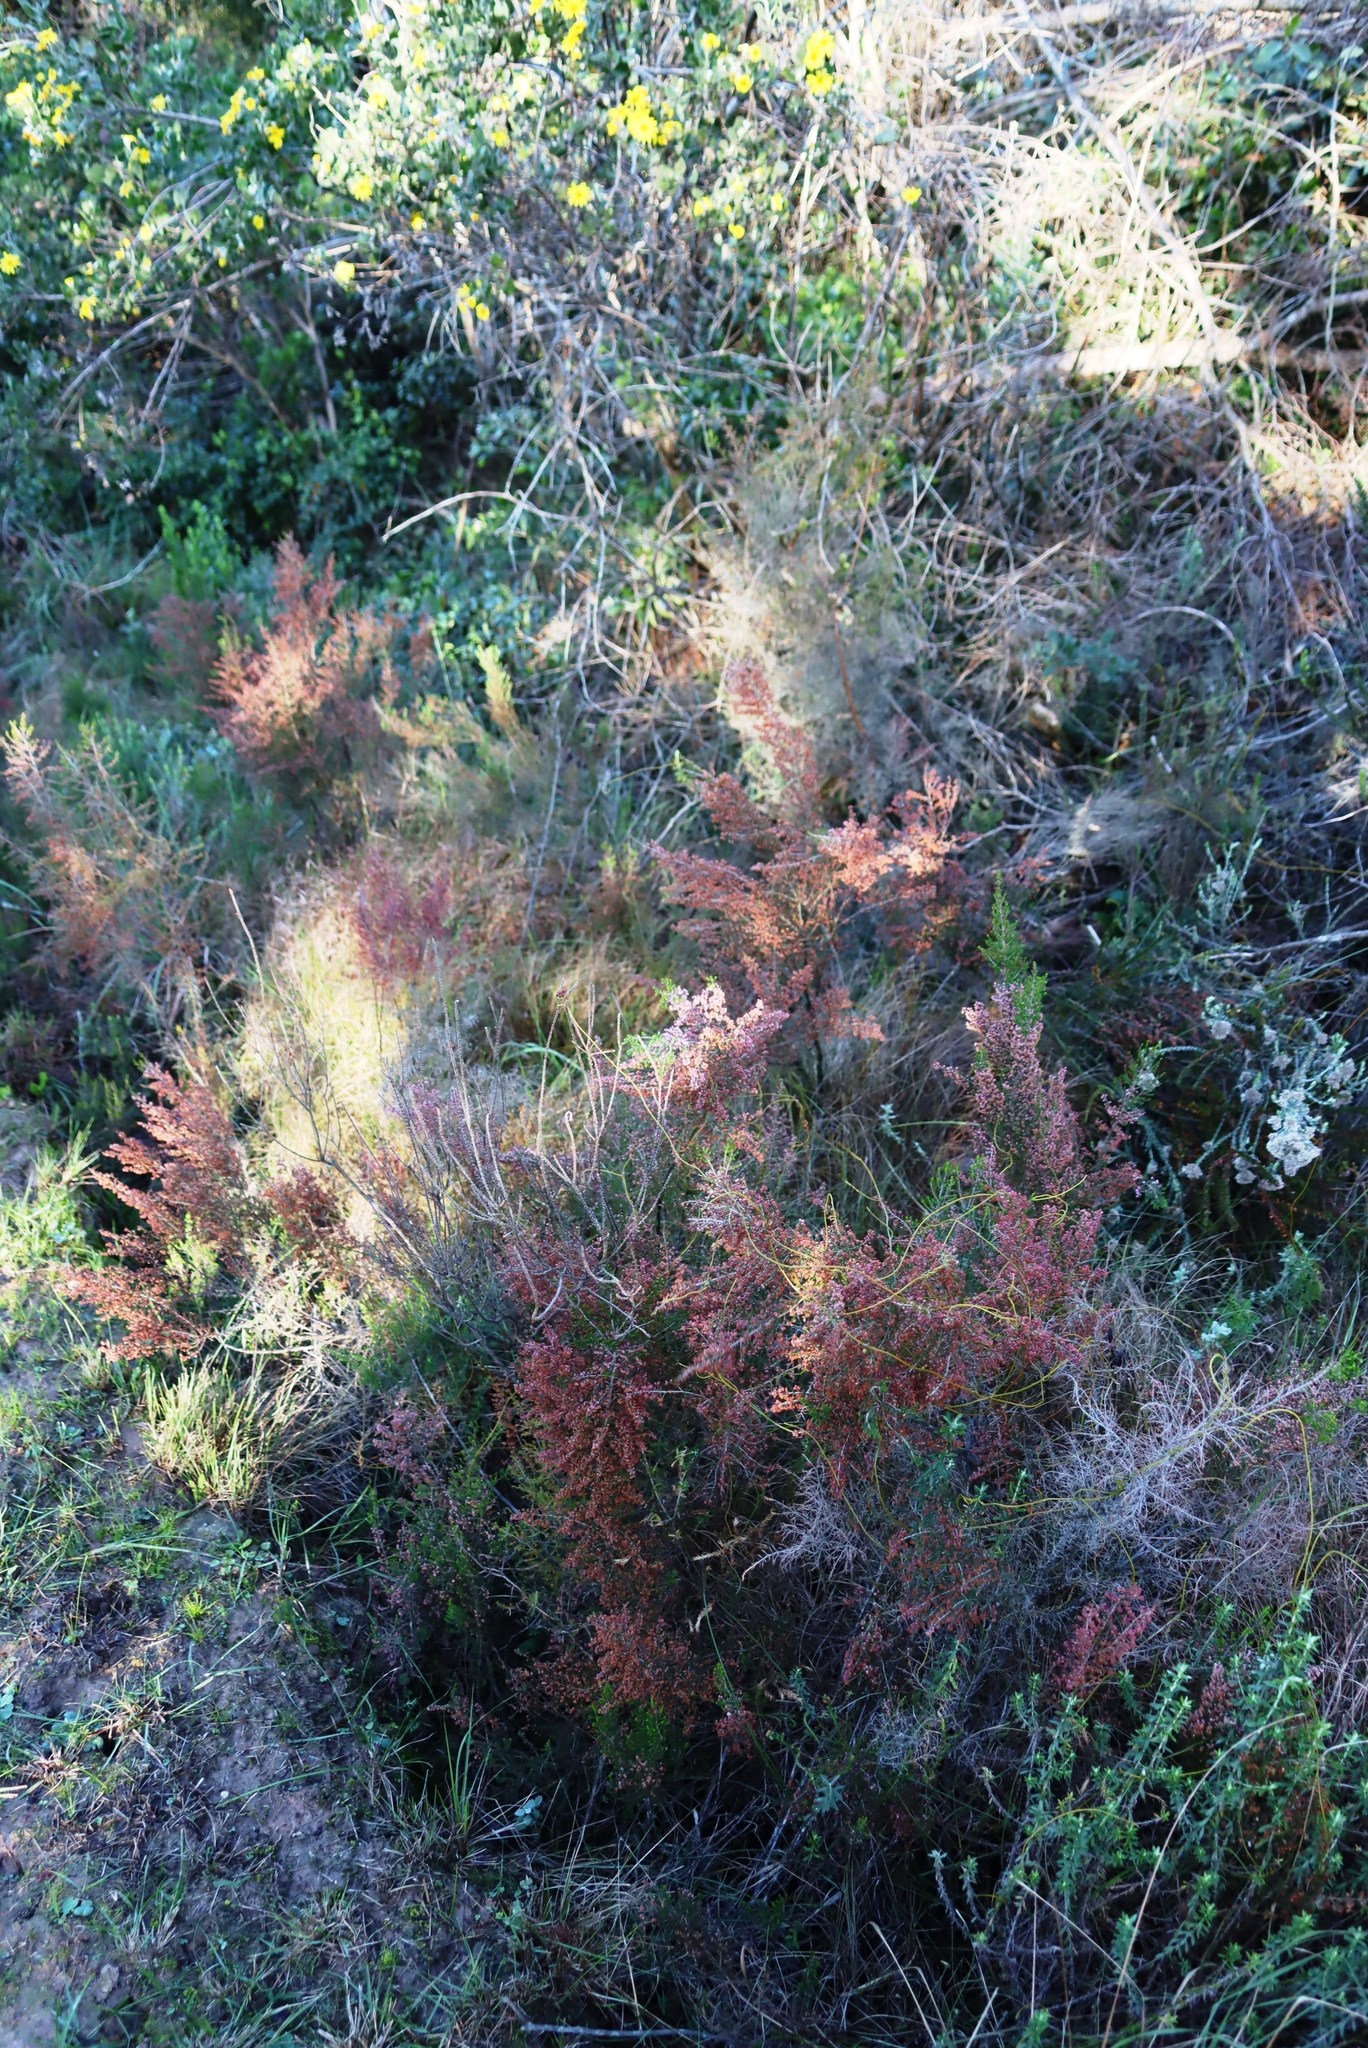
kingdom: Plantae
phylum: Tracheophyta
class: Magnoliopsida
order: Ericales
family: Ericaceae
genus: Erica
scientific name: Erica sparsa
